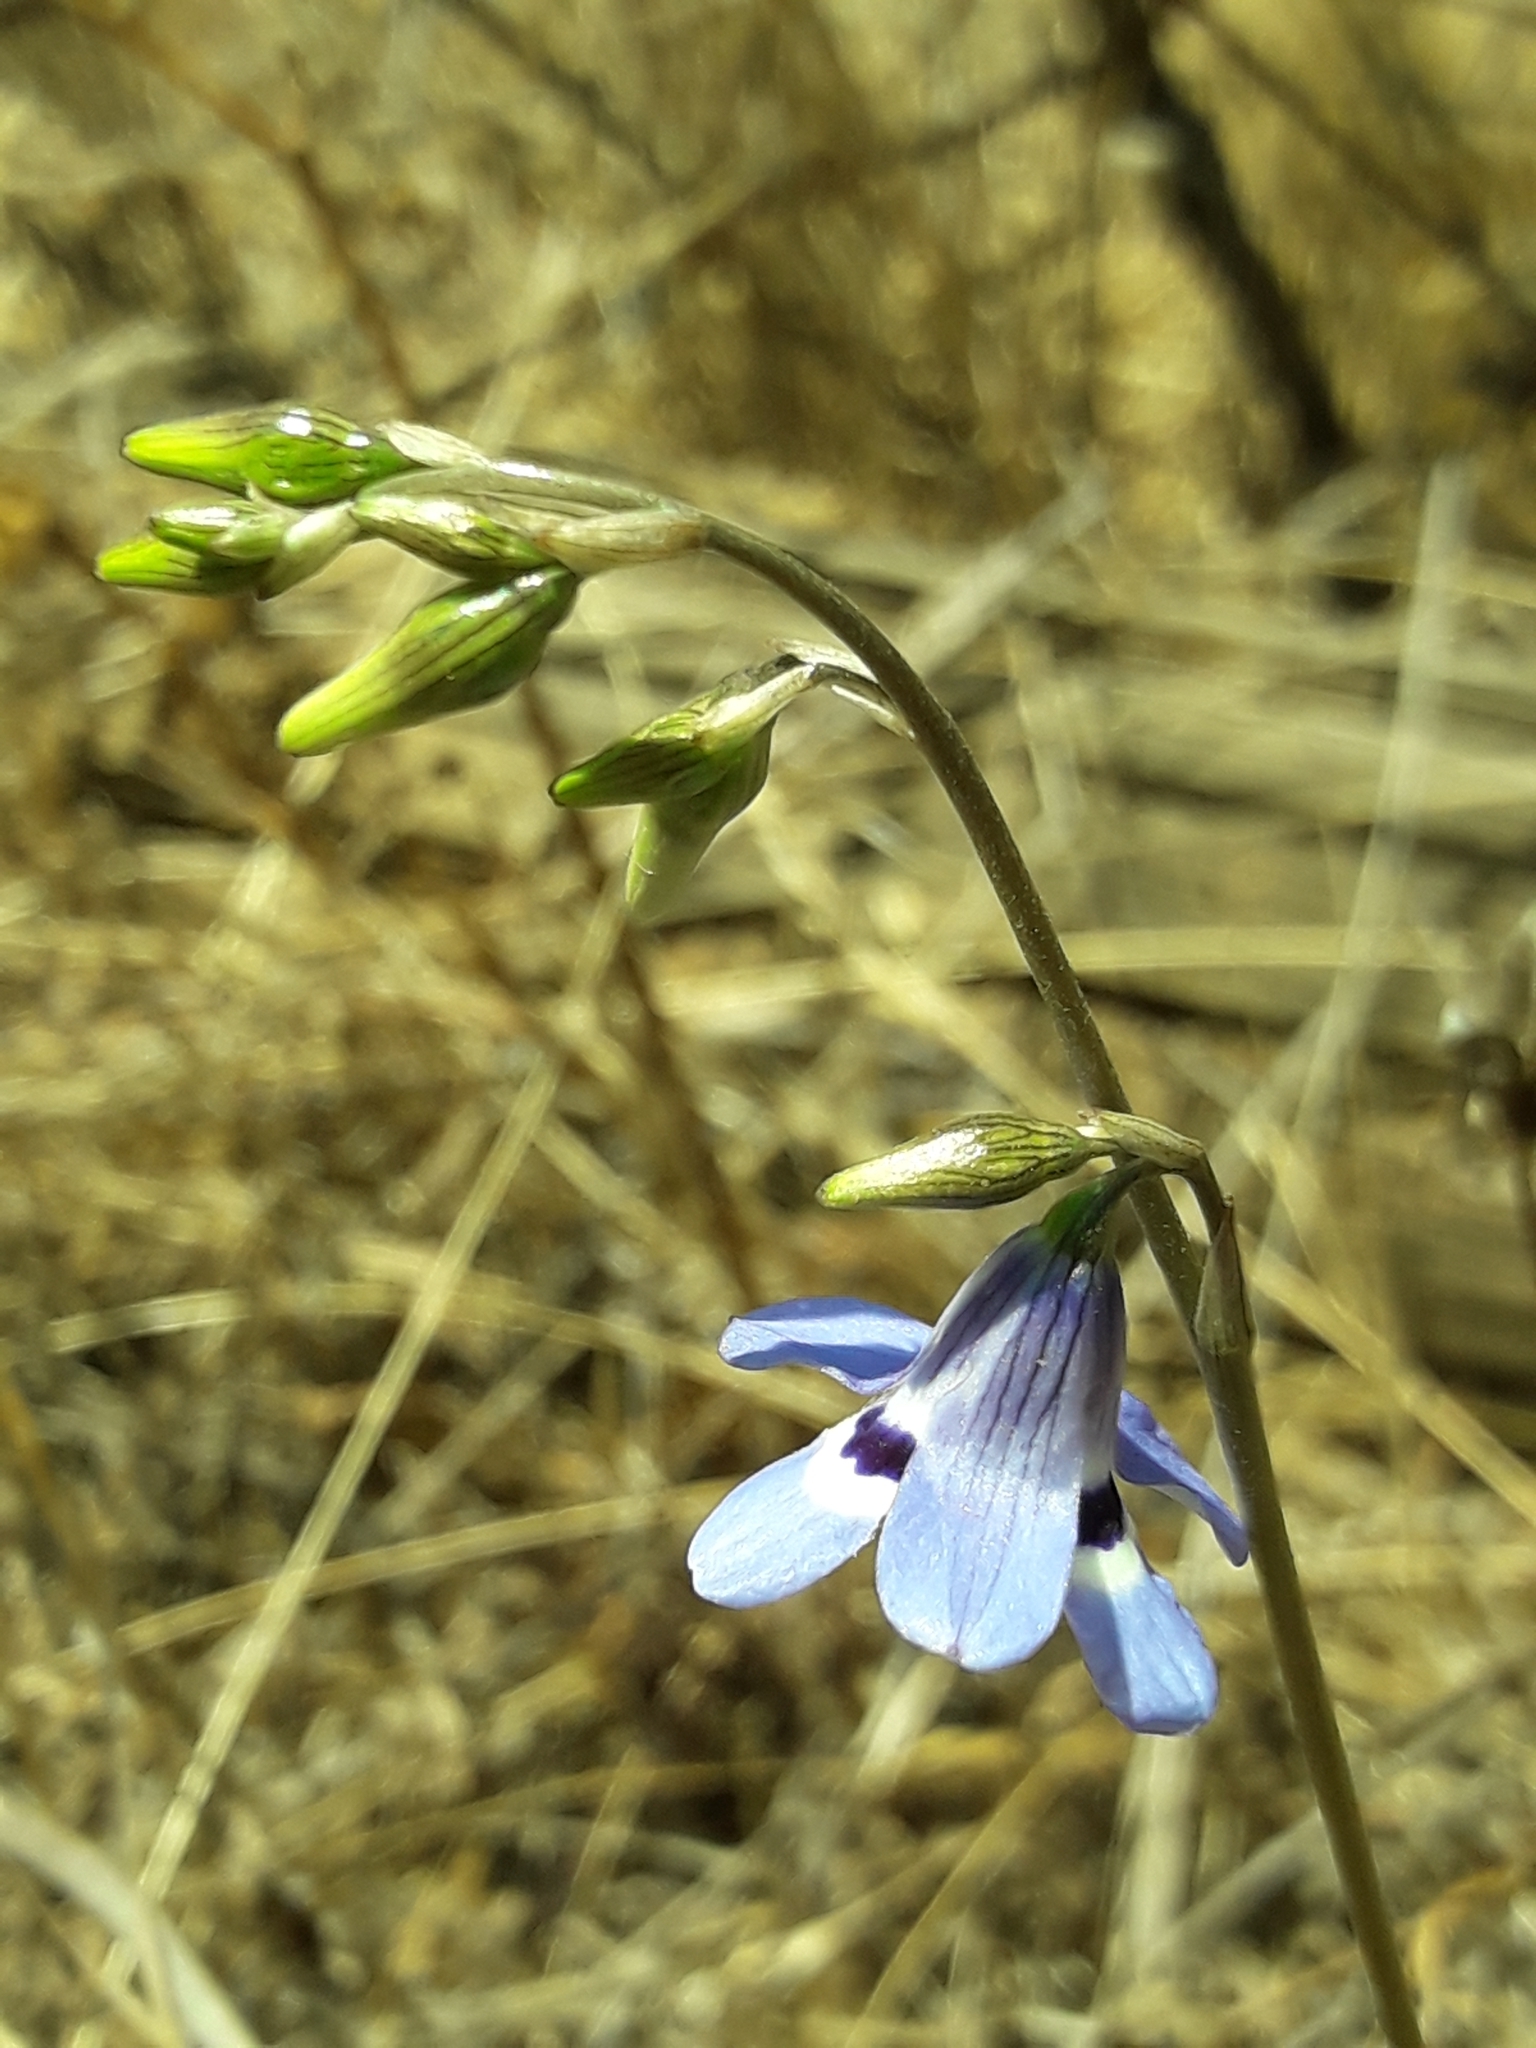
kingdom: Plantae
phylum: Tracheophyta
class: Liliopsida
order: Asparagales
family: Tecophilaeaceae
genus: Conanthera
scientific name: Conanthera trimaculata
